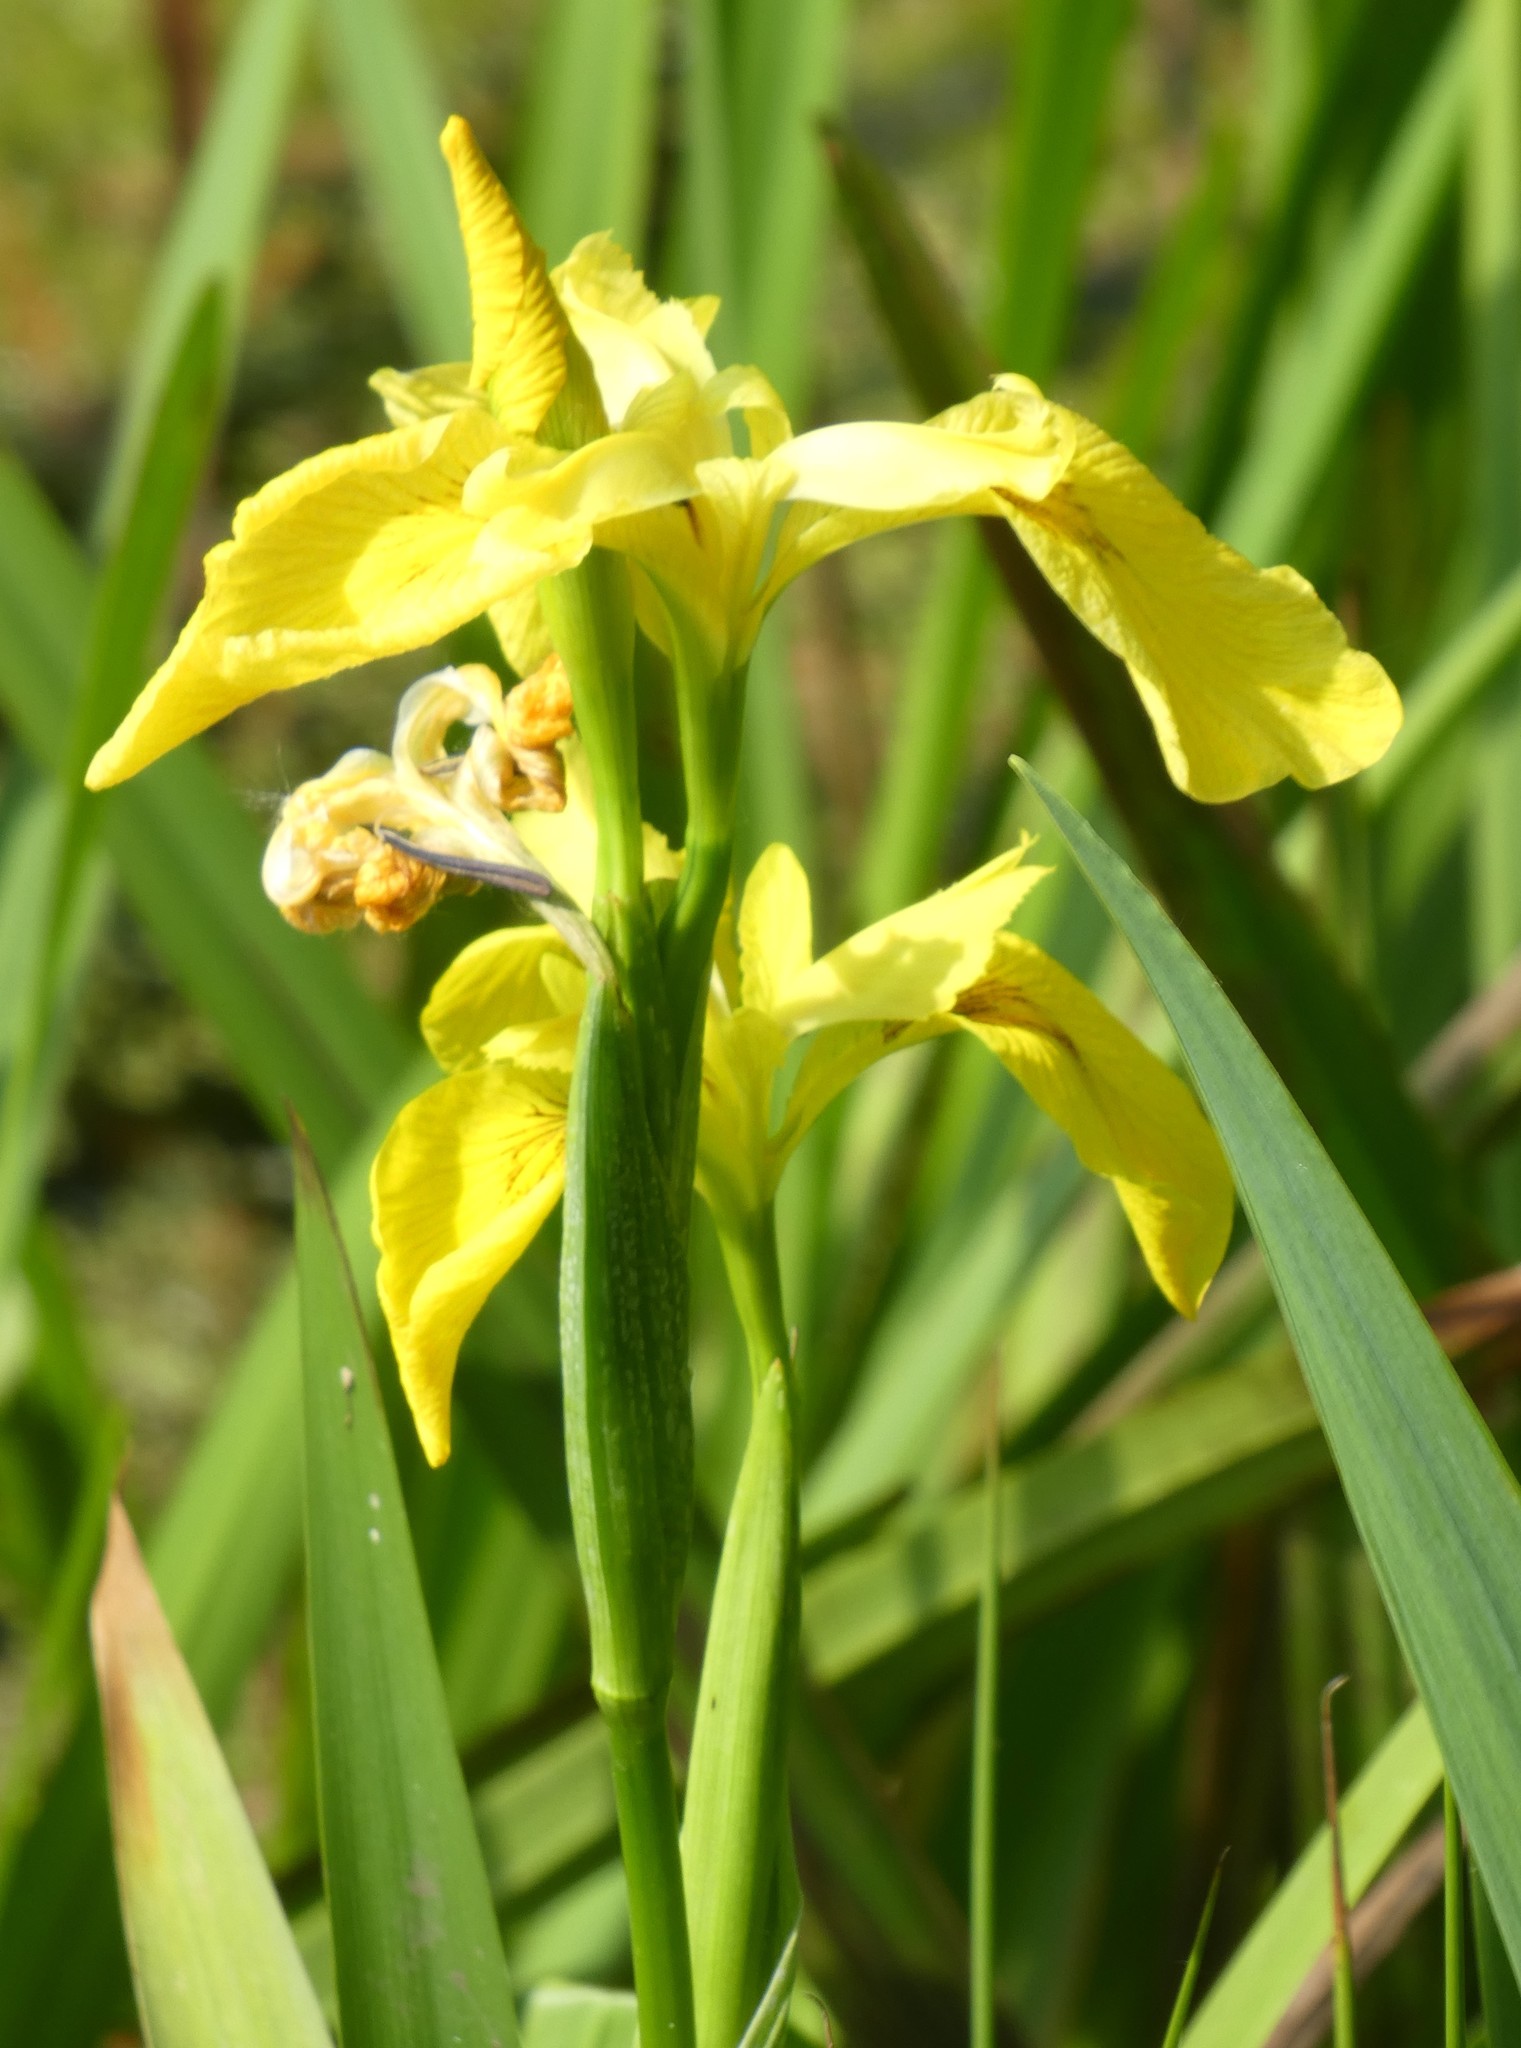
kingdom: Plantae
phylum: Tracheophyta
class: Liliopsida
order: Asparagales
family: Iridaceae
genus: Iris
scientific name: Iris pseudacorus
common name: Yellow flag
